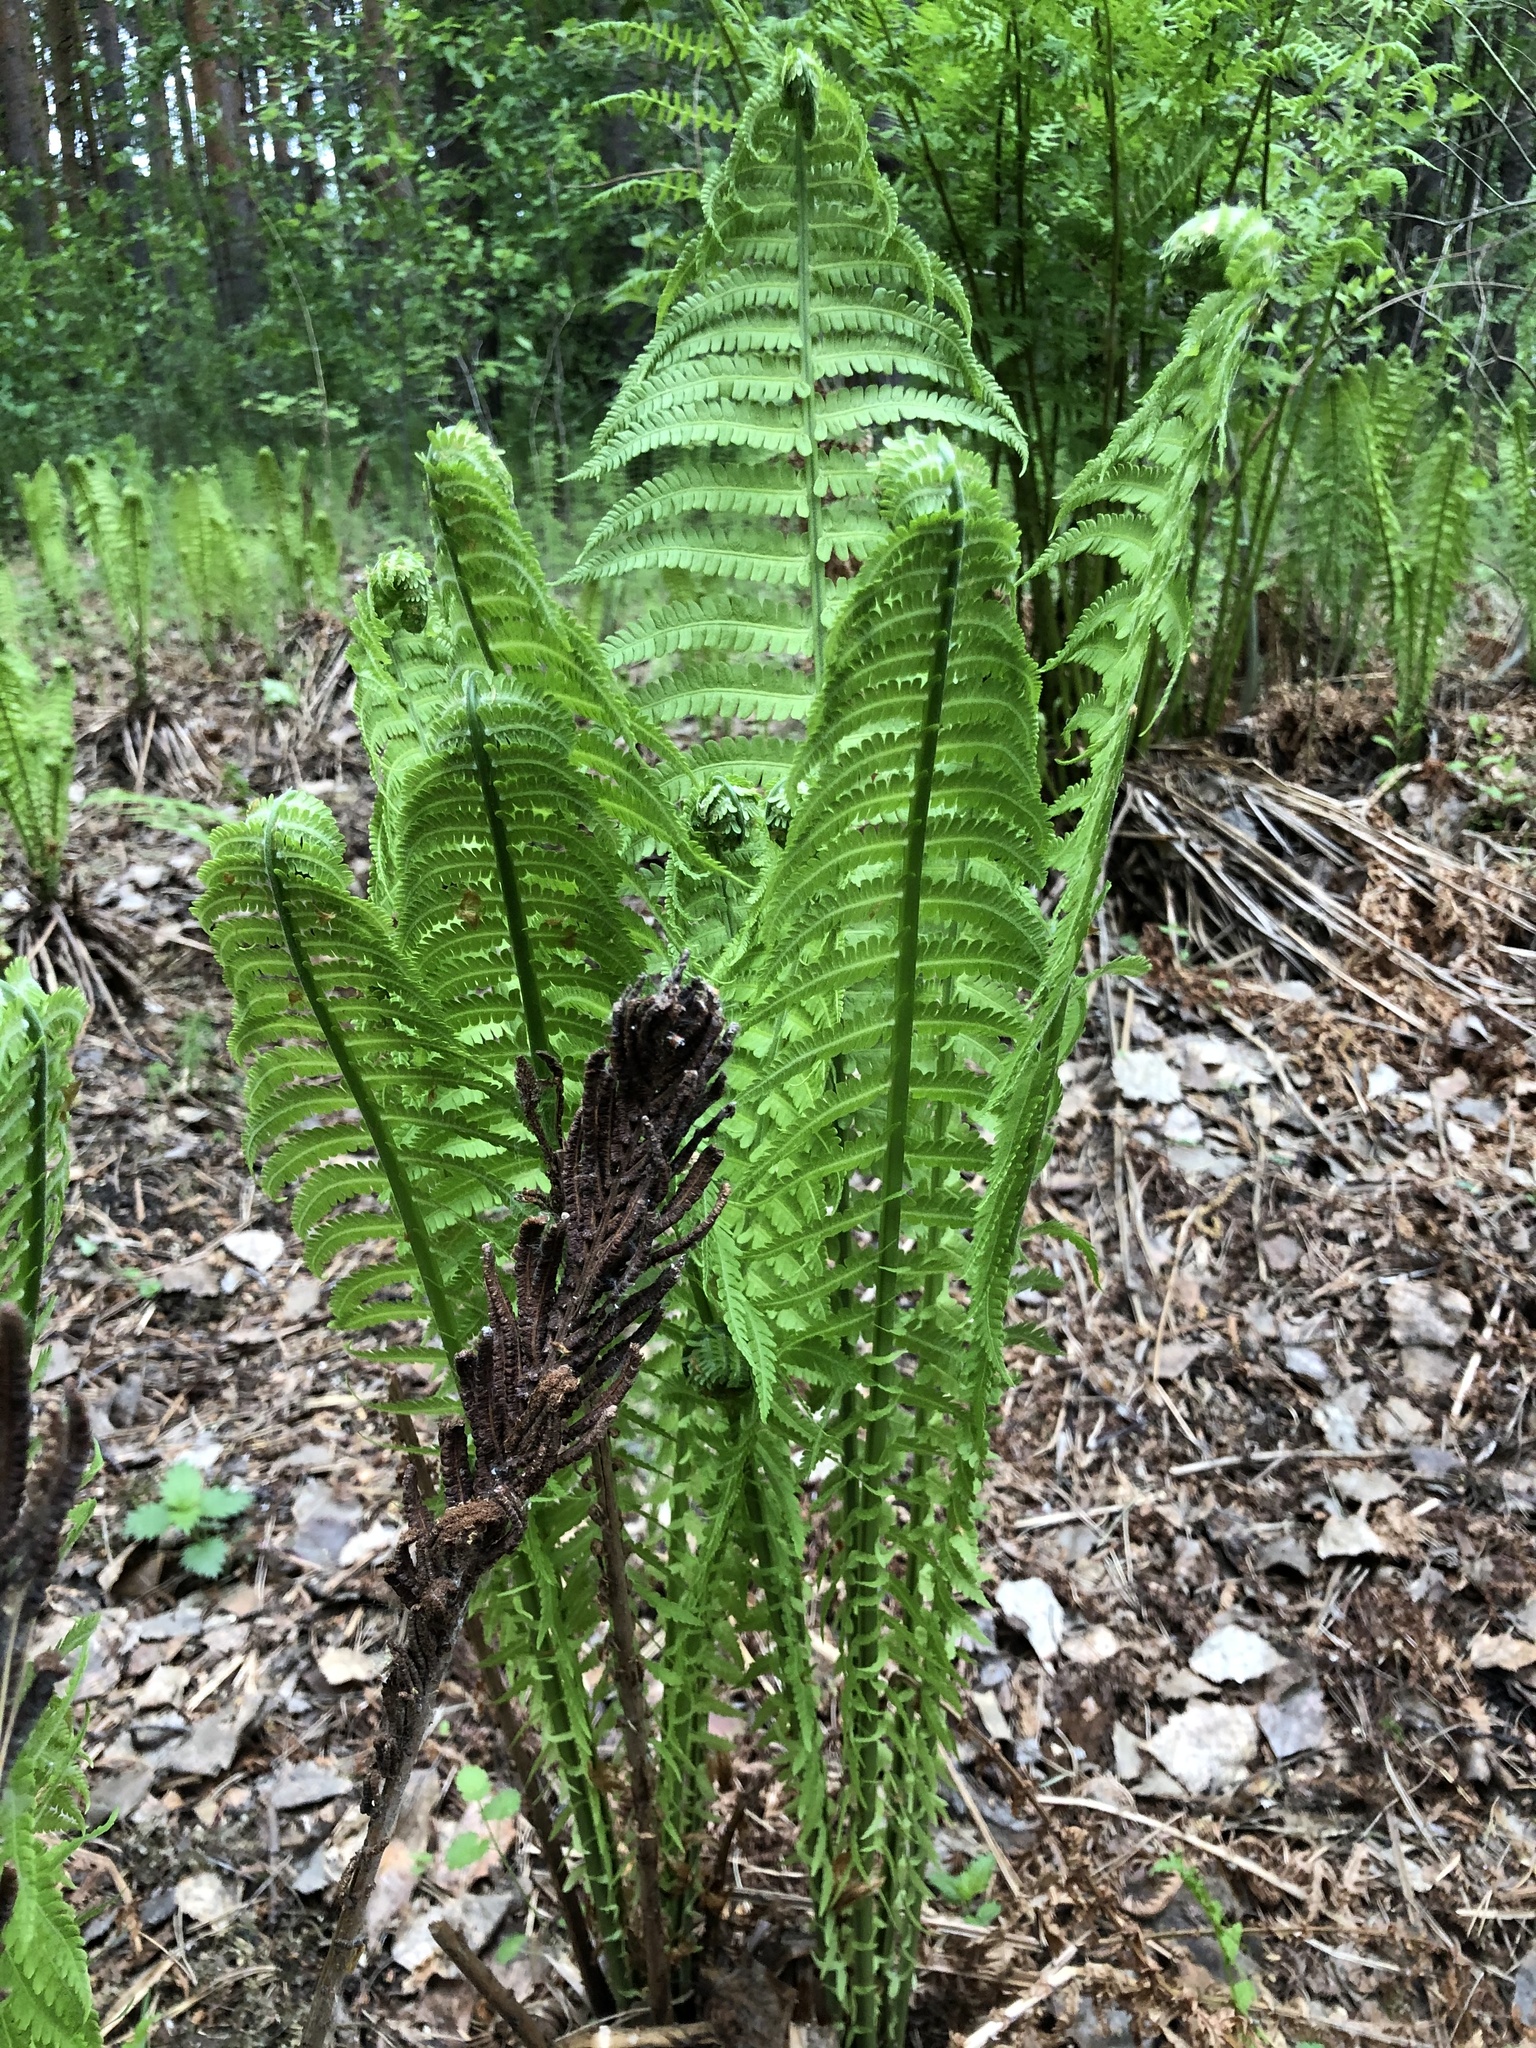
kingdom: Plantae
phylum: Tracheophyta
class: Polypodiopsida
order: Polypodiales
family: Onocleaceae
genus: Matteuccia
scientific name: Matteuccia struthiopteris
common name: Ostrich fern
